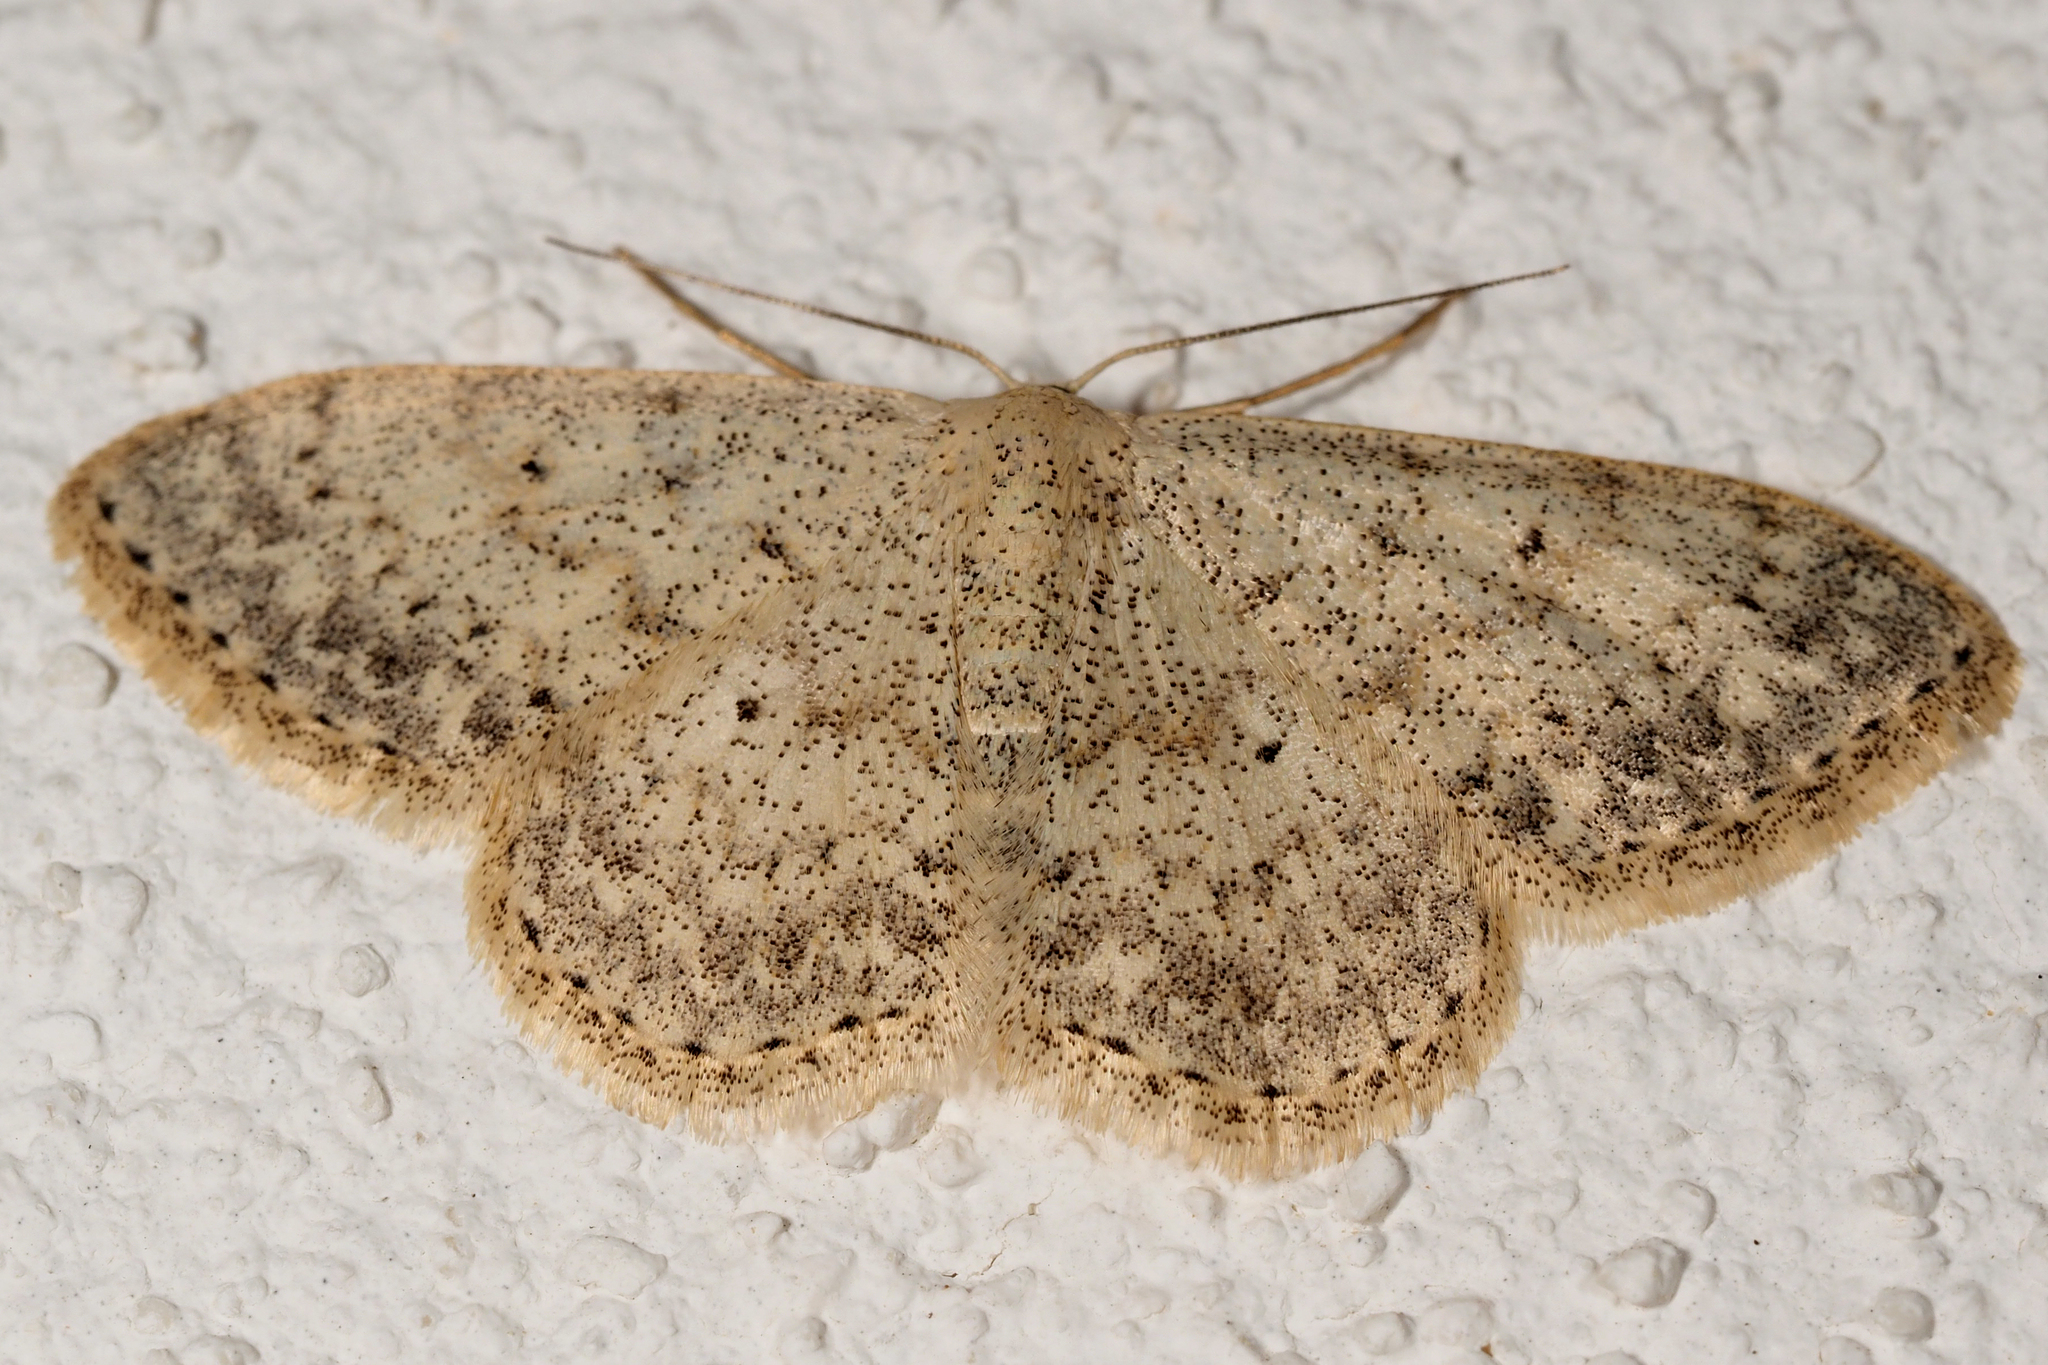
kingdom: Animalia
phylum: Arthropoda
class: Insecta
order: Lepidoptera
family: Geometridae
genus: Scopula
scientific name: Scopula marginepunctata
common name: Mullein wave
